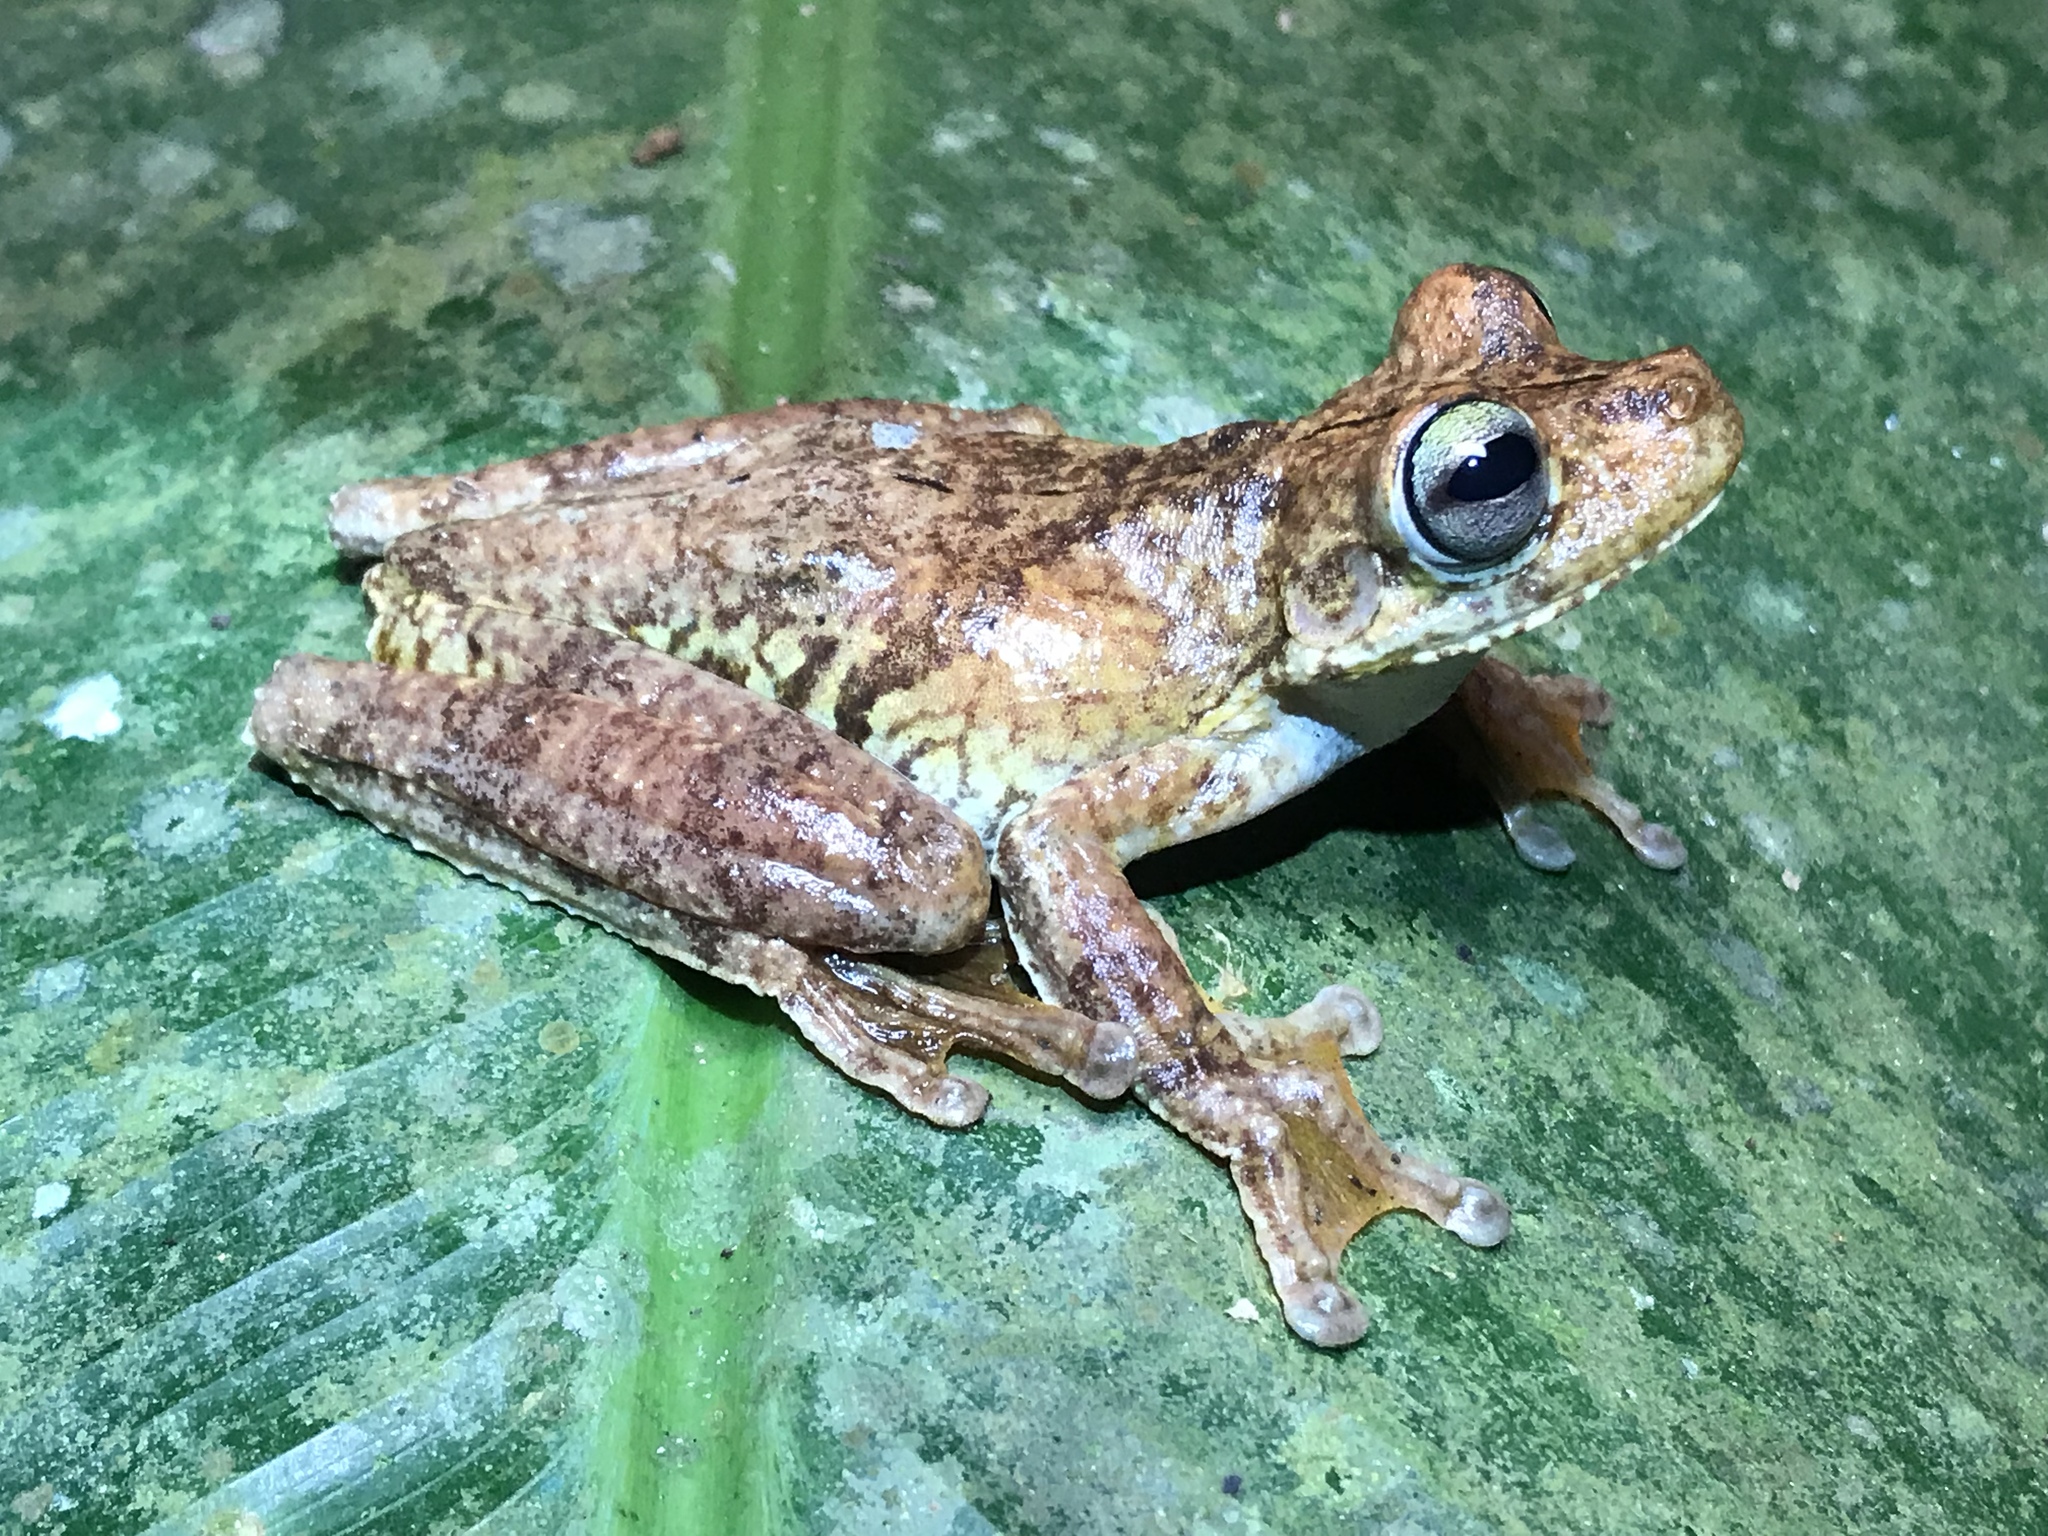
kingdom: Animalia
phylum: Chordata
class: Amphibia
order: Anura
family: Hylidae
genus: Boana
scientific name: Boana rosenbergi
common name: Rosenberg´s gladiator treefrog
